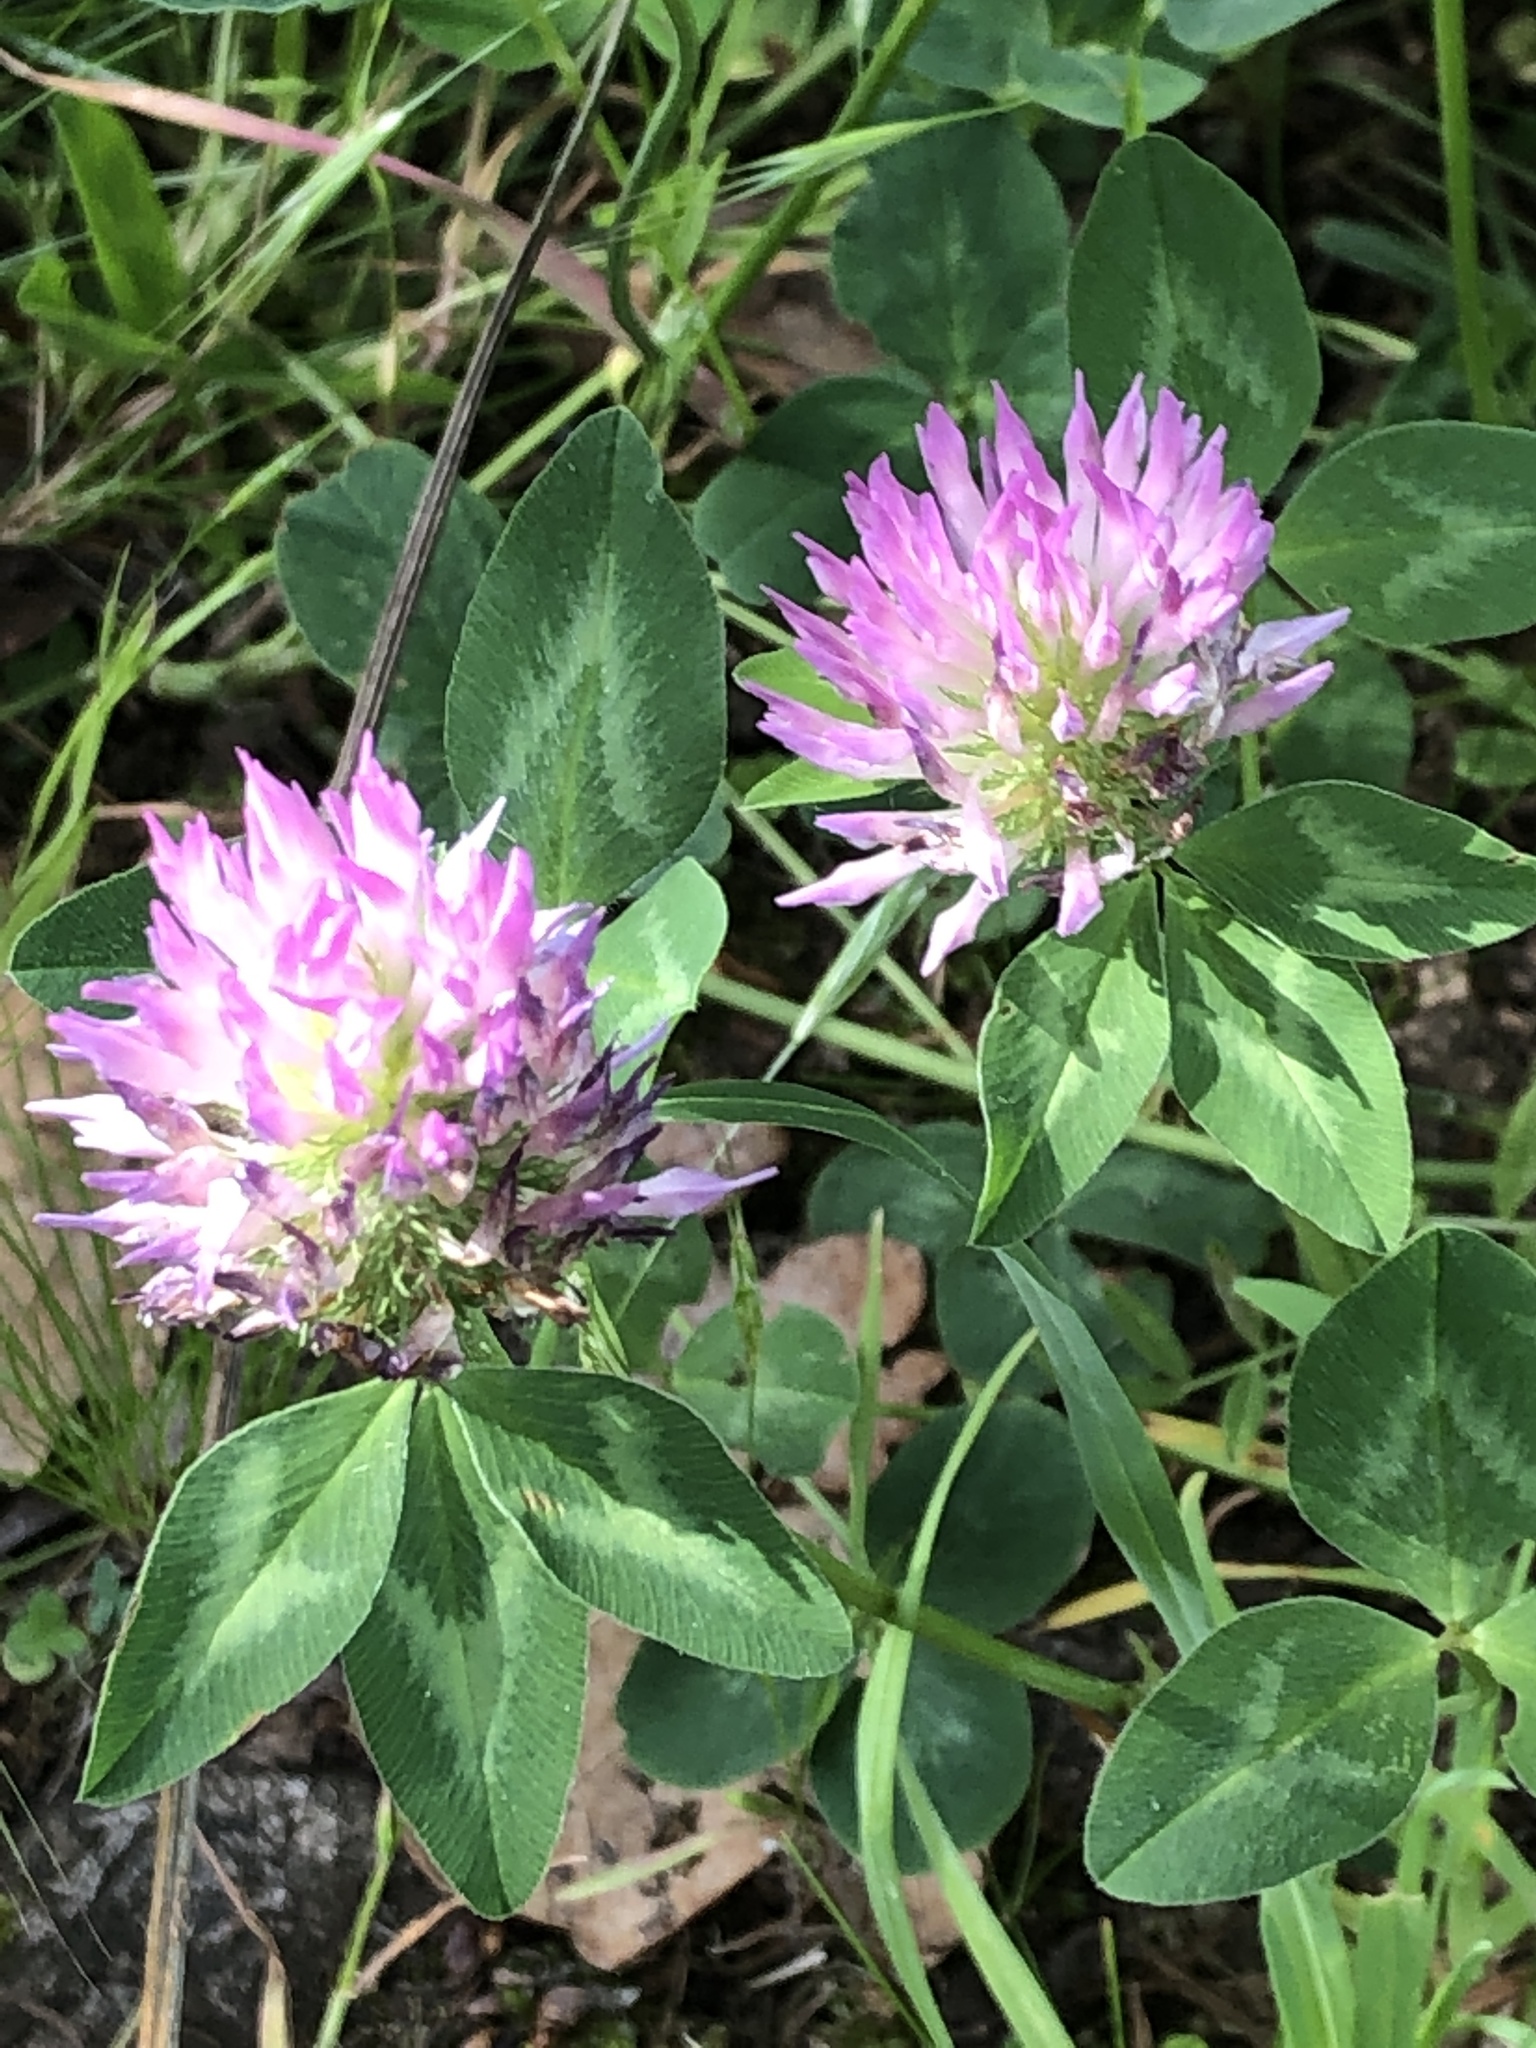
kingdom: Plantae
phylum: Tracheophyta
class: Magnoliopsida
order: Fabales
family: Fabaceae
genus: Trifolium
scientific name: Trifolium pratense
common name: Red clover
